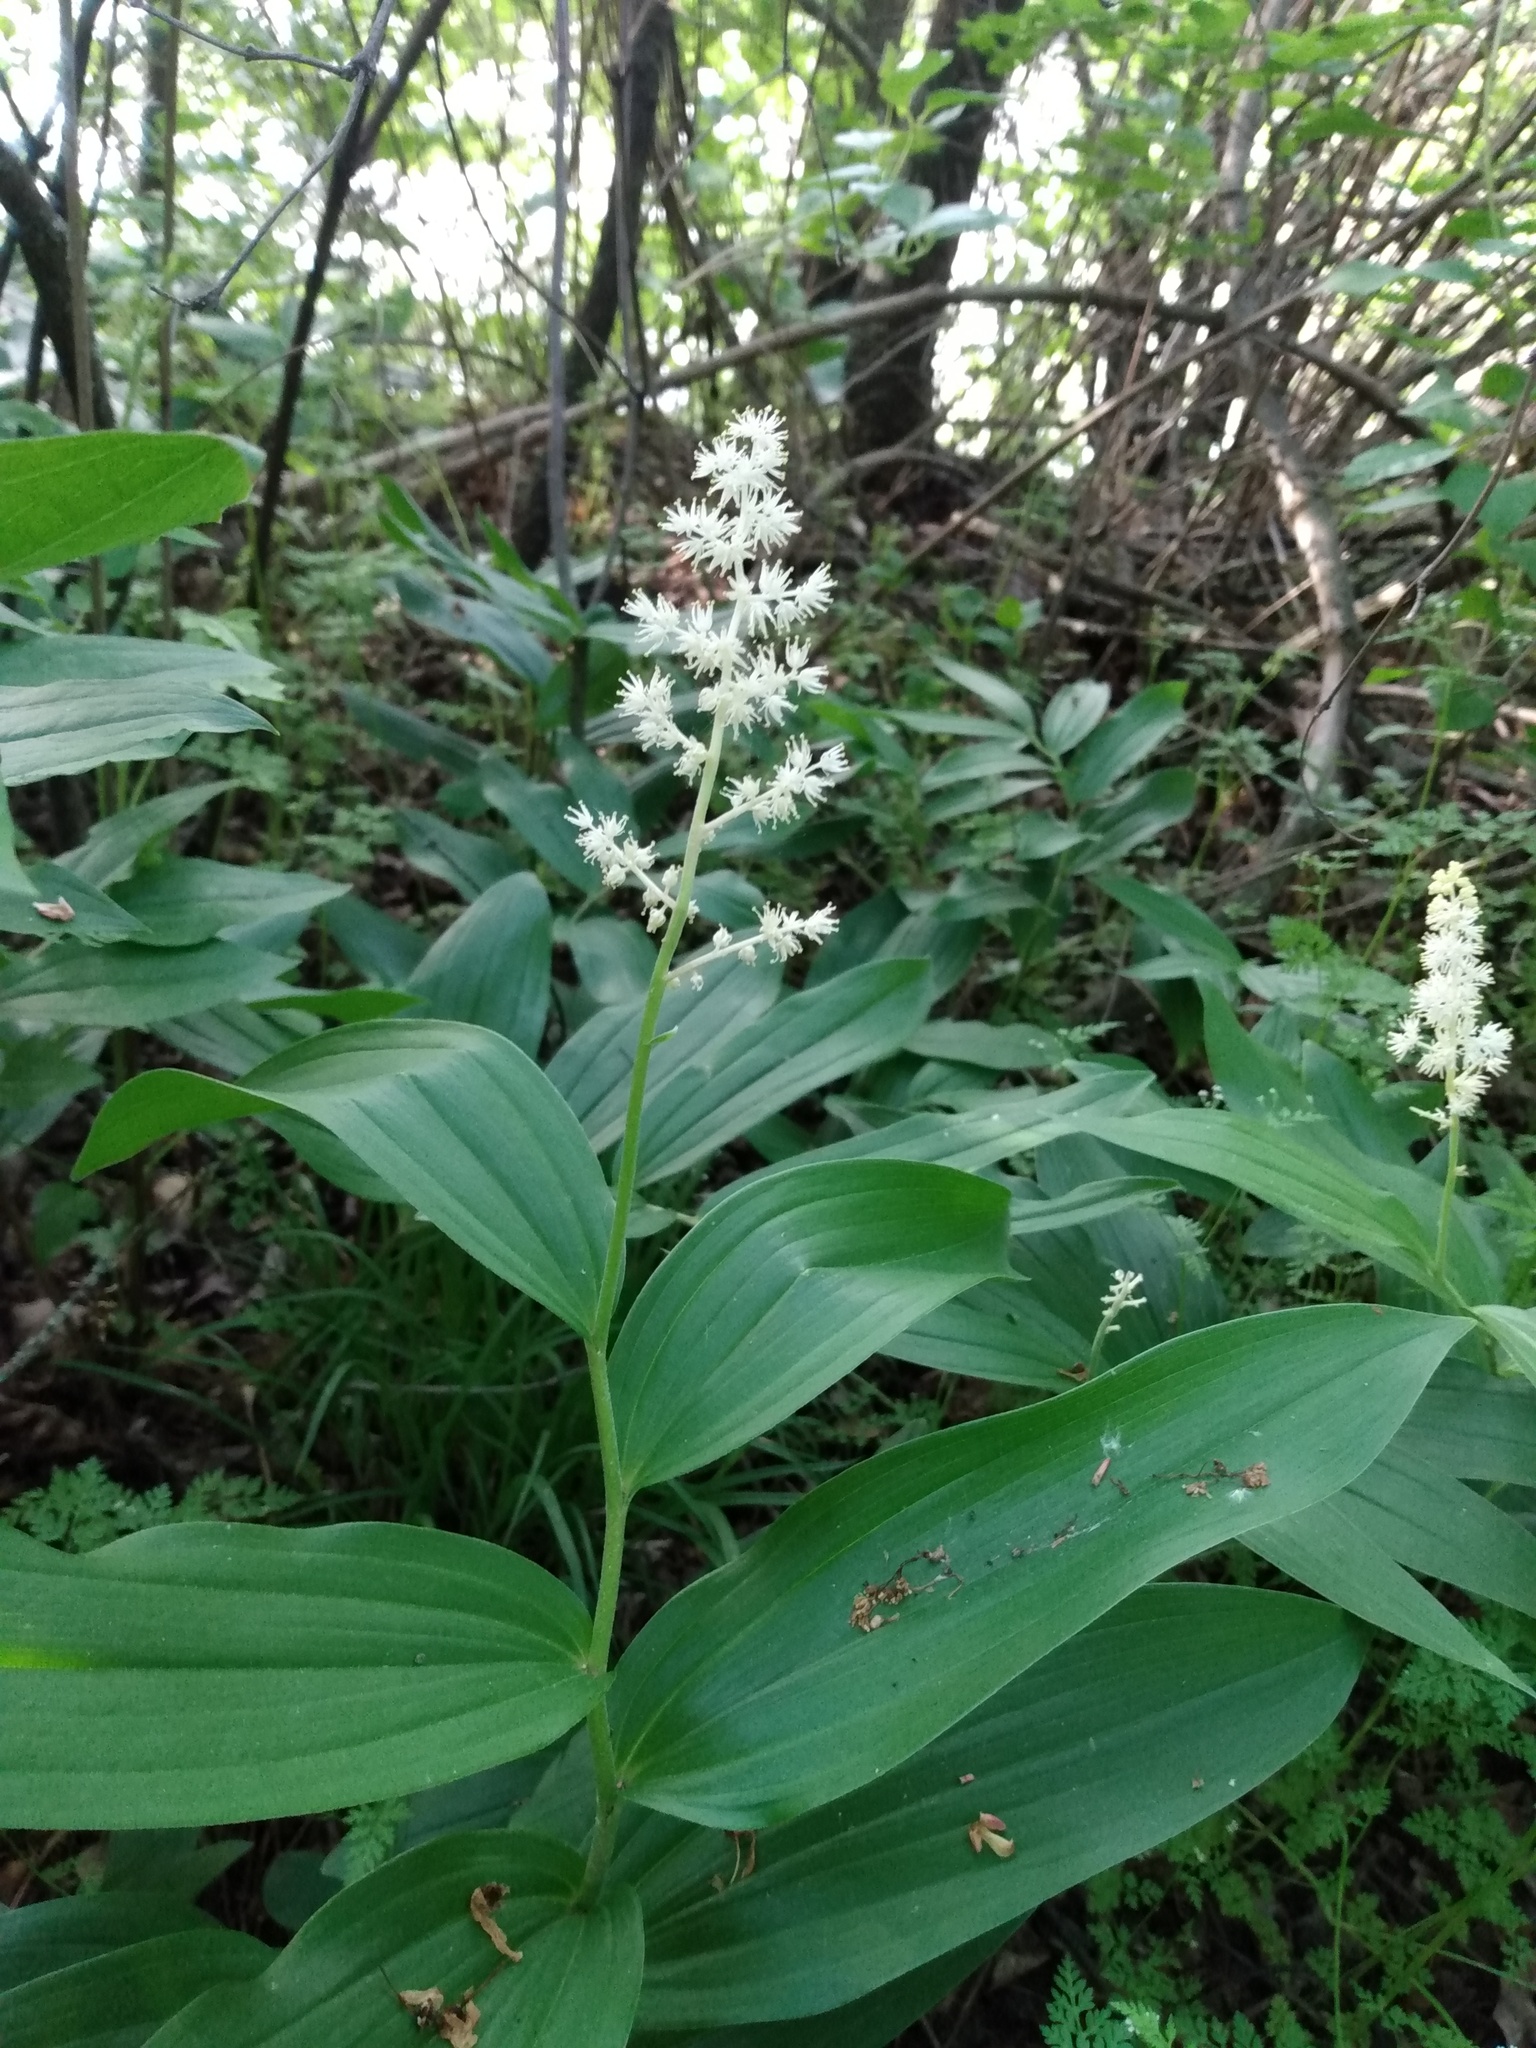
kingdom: Plantae
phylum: Tracheophyta
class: Liliopsida
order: Asparagales
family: Asparagaceae
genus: Maianthemum
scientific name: Maianthemum racemosum
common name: False spikenard
